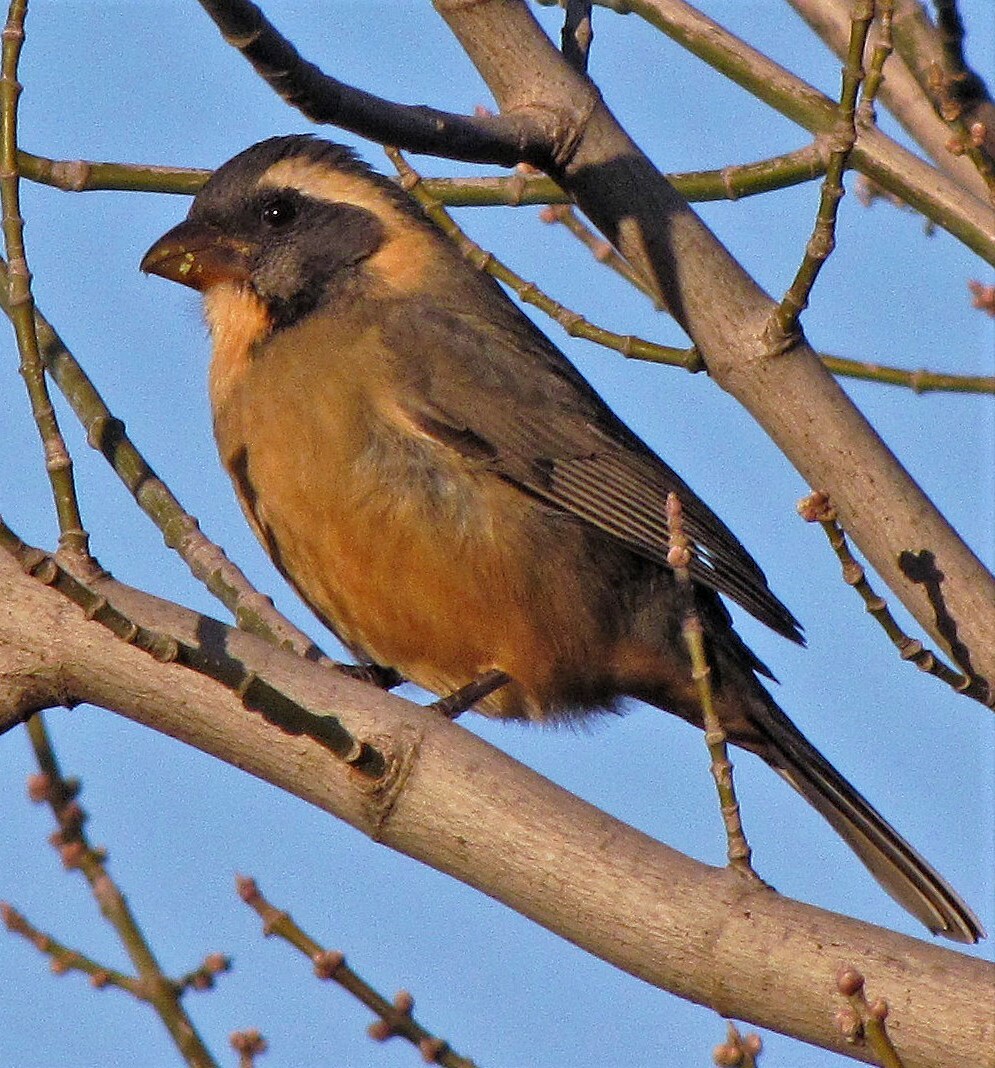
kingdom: Animalia
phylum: Chordata
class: Aves
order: Passeriformes
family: Thraupidae
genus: Saltator
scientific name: Saltator aurantiirostris
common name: Golden-billed saltator
